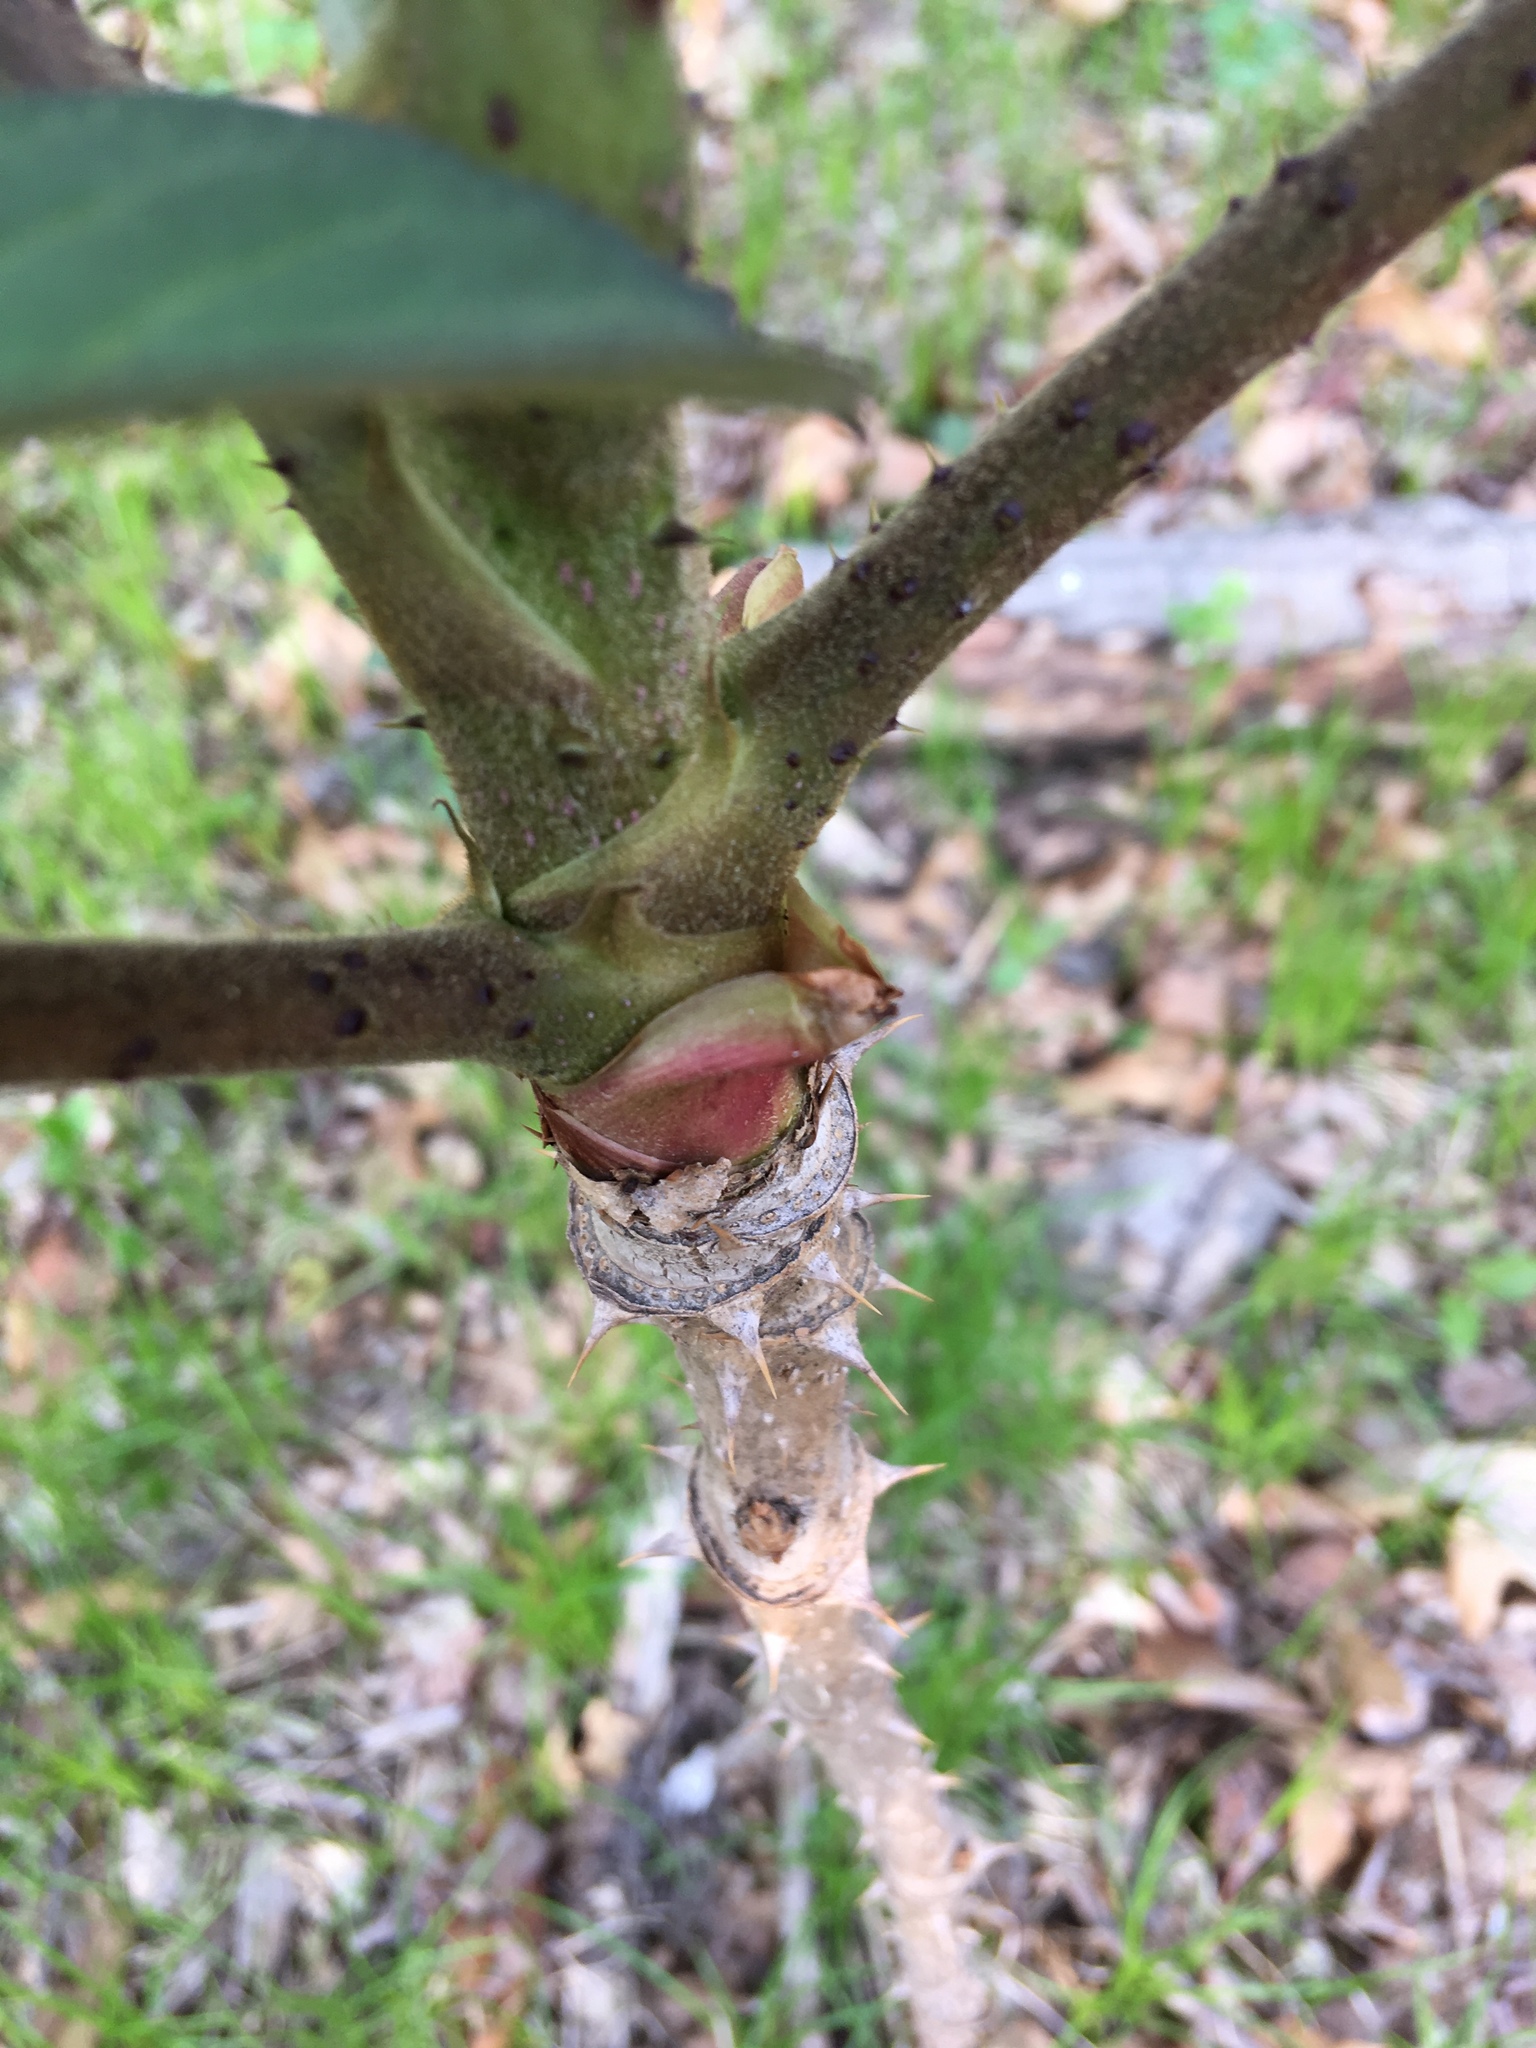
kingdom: Plantae
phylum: Tracheophyta
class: Magnoliopsida
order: Apiales
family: Araliaceae
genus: Aralia
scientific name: Aralia elata
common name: Japanese angelica-tree
